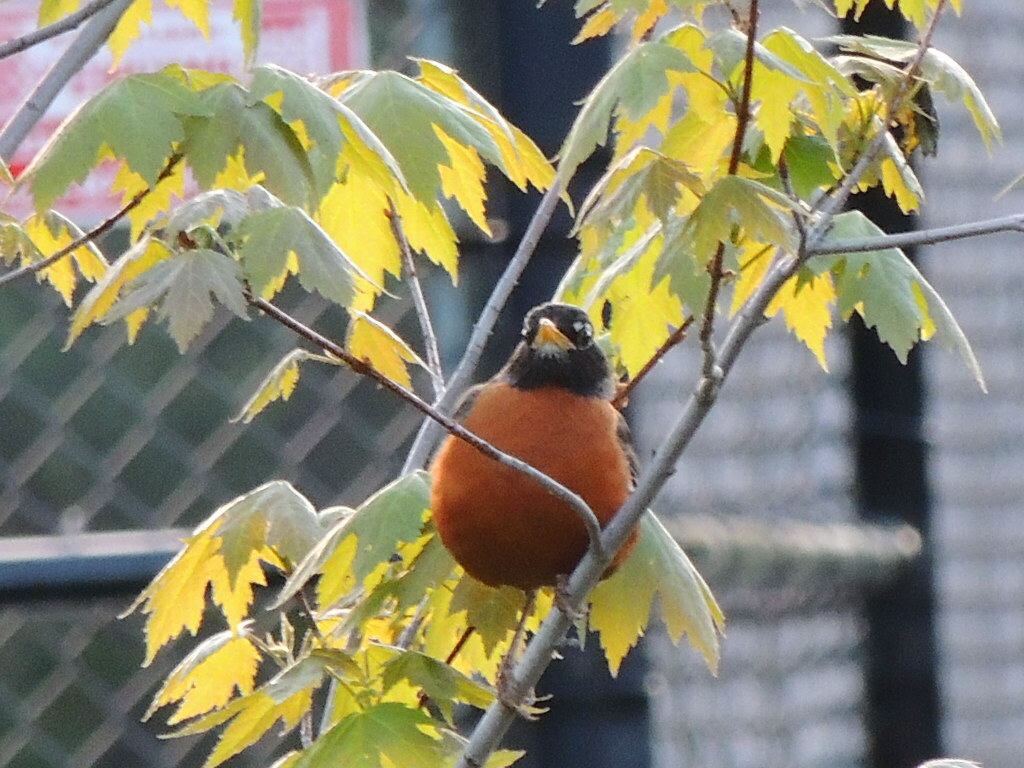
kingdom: Animalia
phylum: Chordata
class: Aves
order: Passeriformes
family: Turdidae
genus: Turdus
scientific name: Turdus migratorius
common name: American robin
